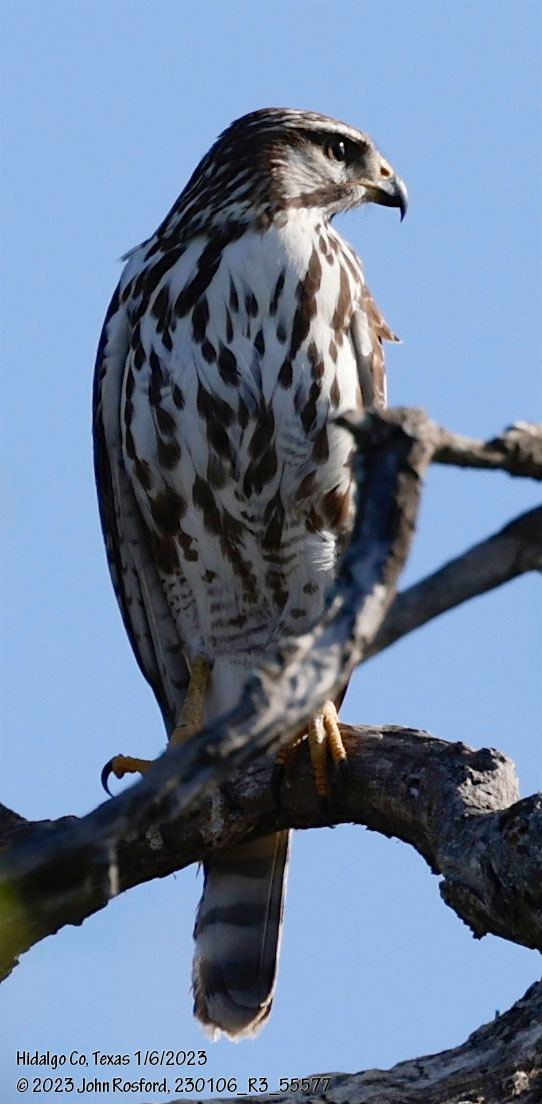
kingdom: Animalia
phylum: Chordata
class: Aves
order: Accipitriformes
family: Accipitridae
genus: Buteo
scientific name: Buteo nitidus
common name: Grey-lined hawk
